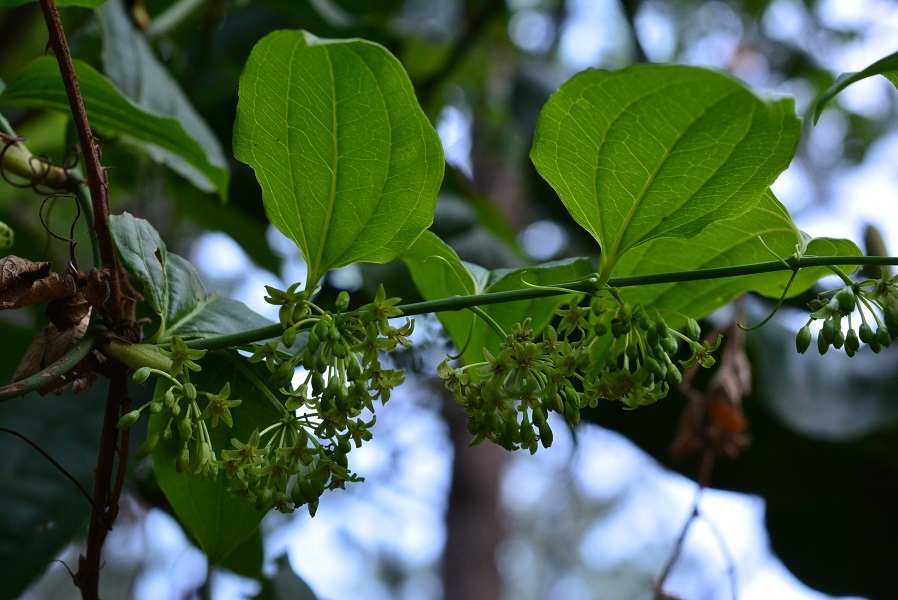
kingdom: Plantae
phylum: Tracheophyta
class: Liliopsida
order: Liliales
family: Smilacaceae
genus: Smilax
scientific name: Smilax subpubescens
